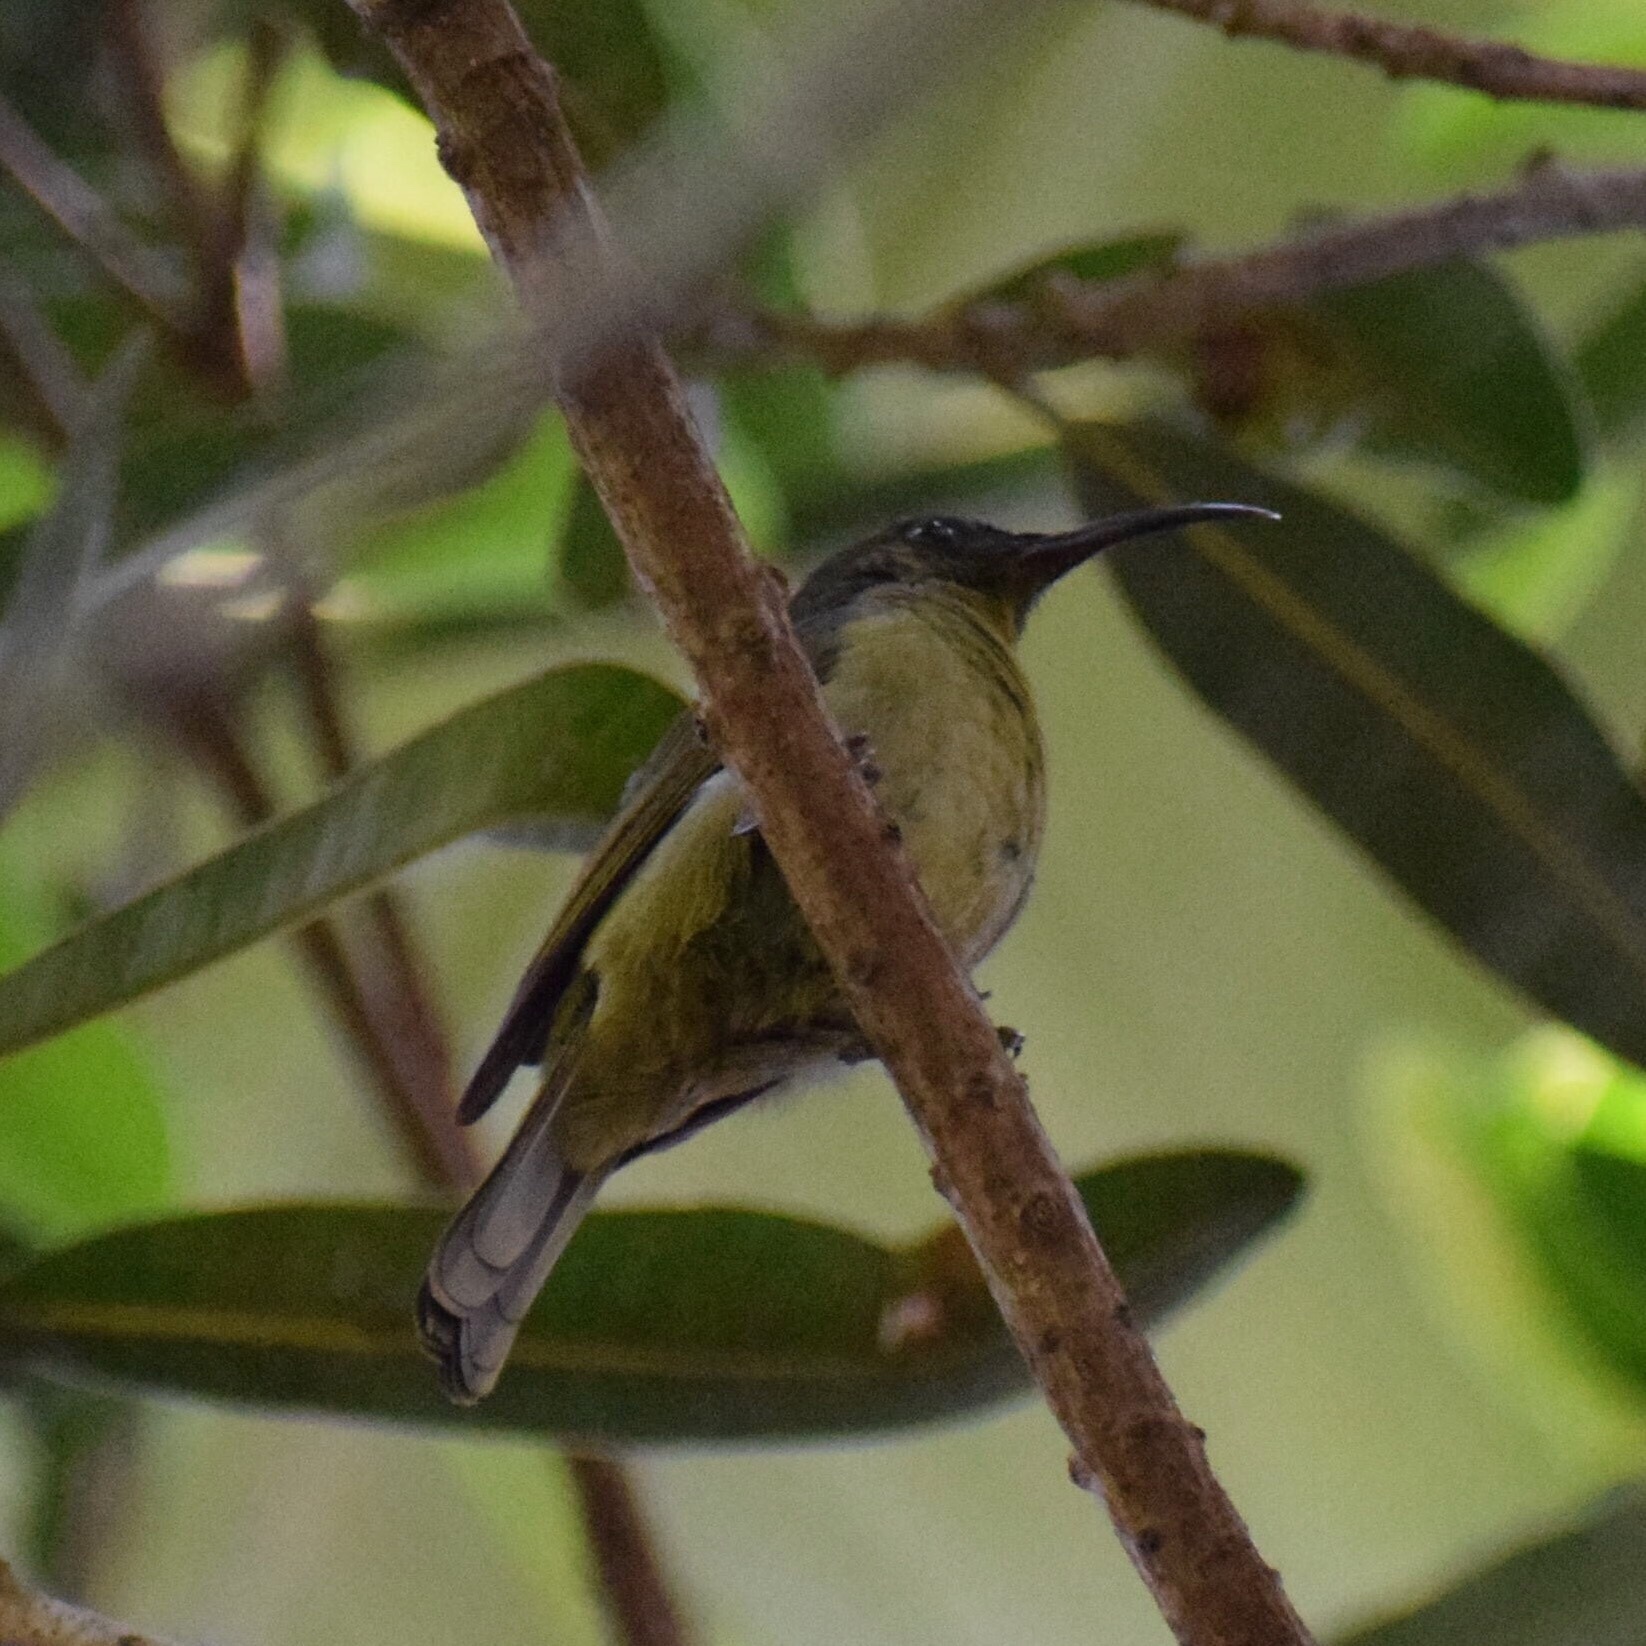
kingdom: Animalia
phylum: Chordata
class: Aves
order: Passeriformes
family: Nectariniidae
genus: Cyanomitra
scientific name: Cyanomitra olivacea
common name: Olive sunbird
